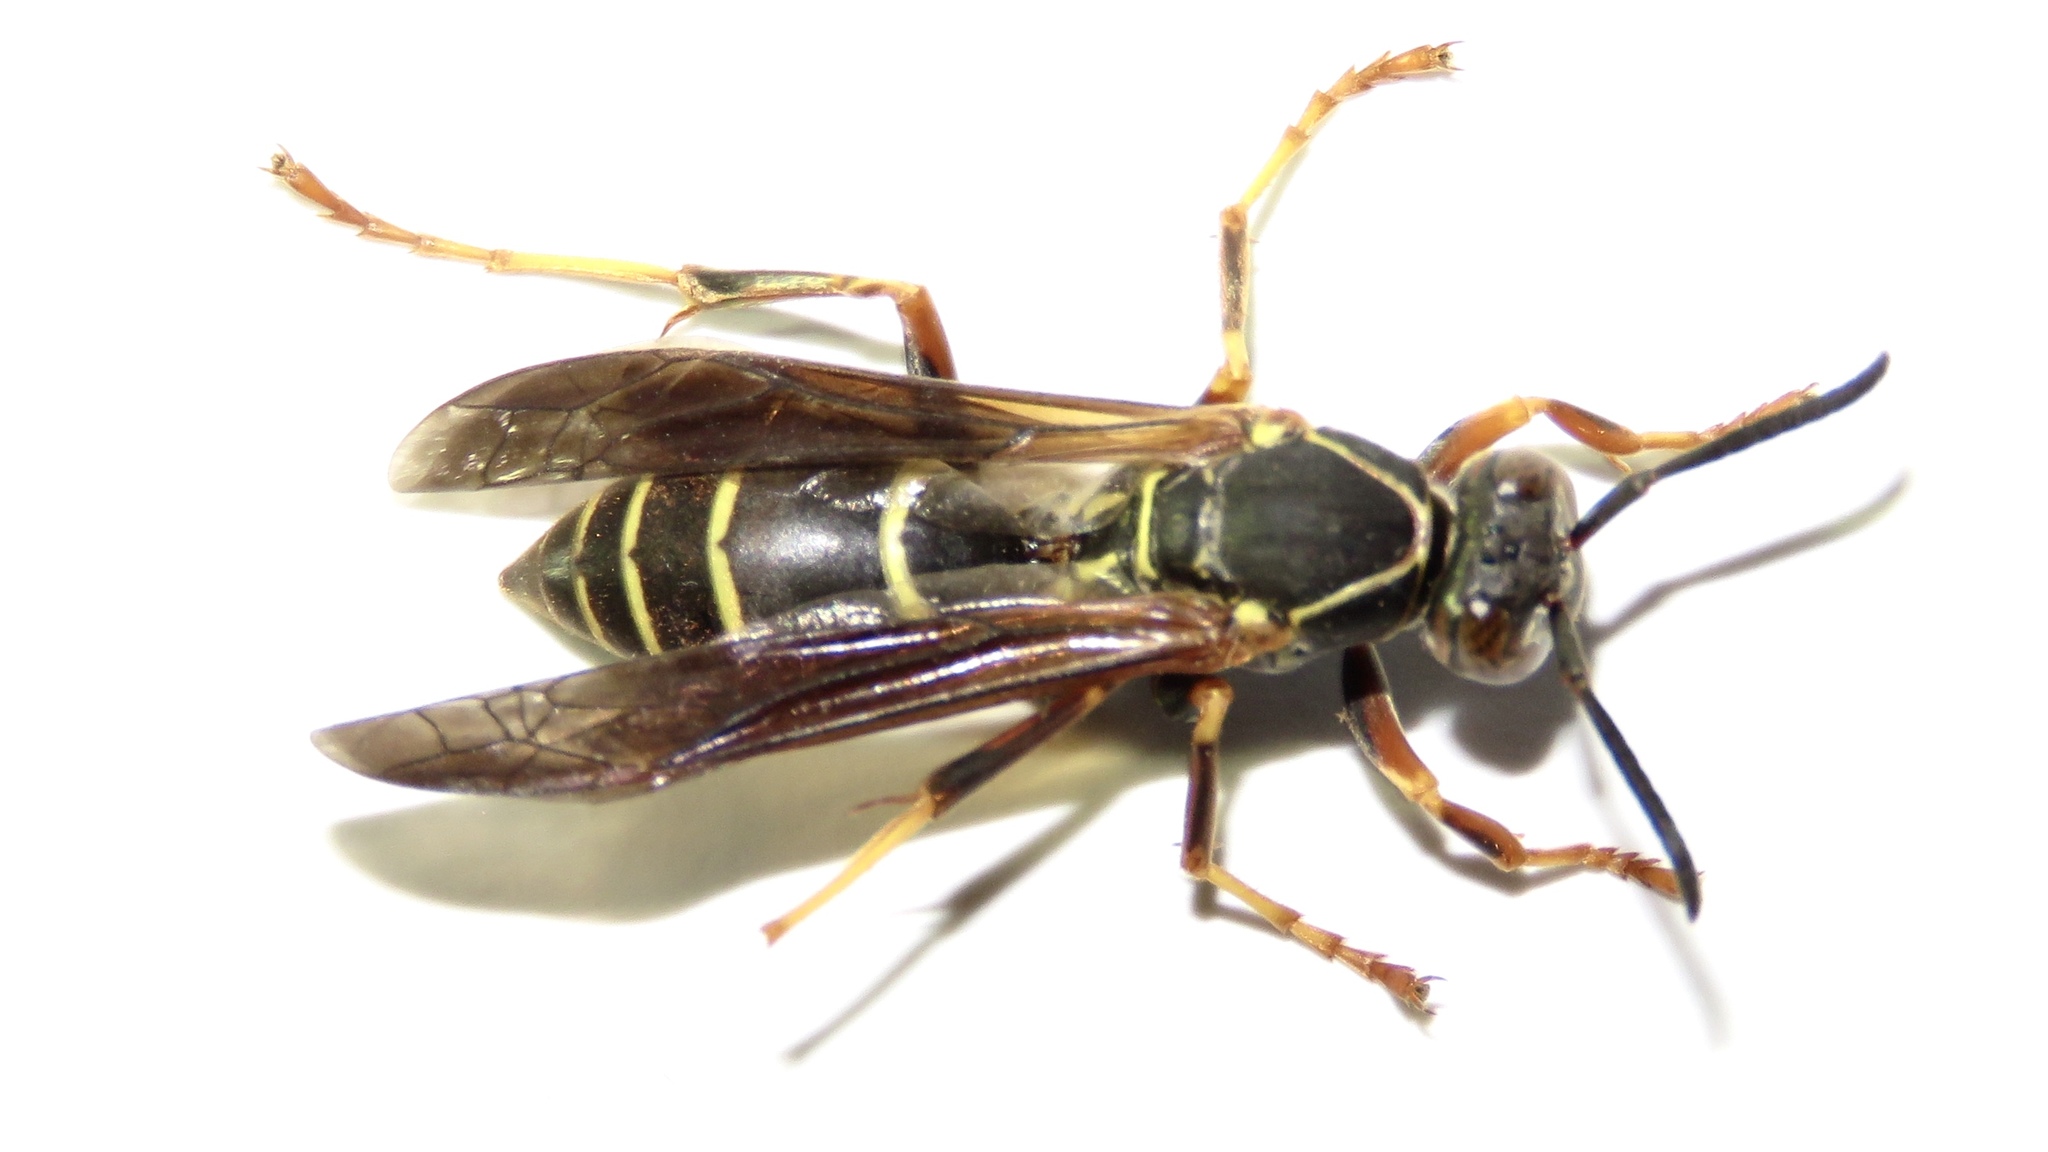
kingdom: Animalia
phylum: Arthropoda
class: Insecta
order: Hymenoptera
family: Eumenidae
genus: Polistes
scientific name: Polistes fuscatus
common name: Dark paper wasp
